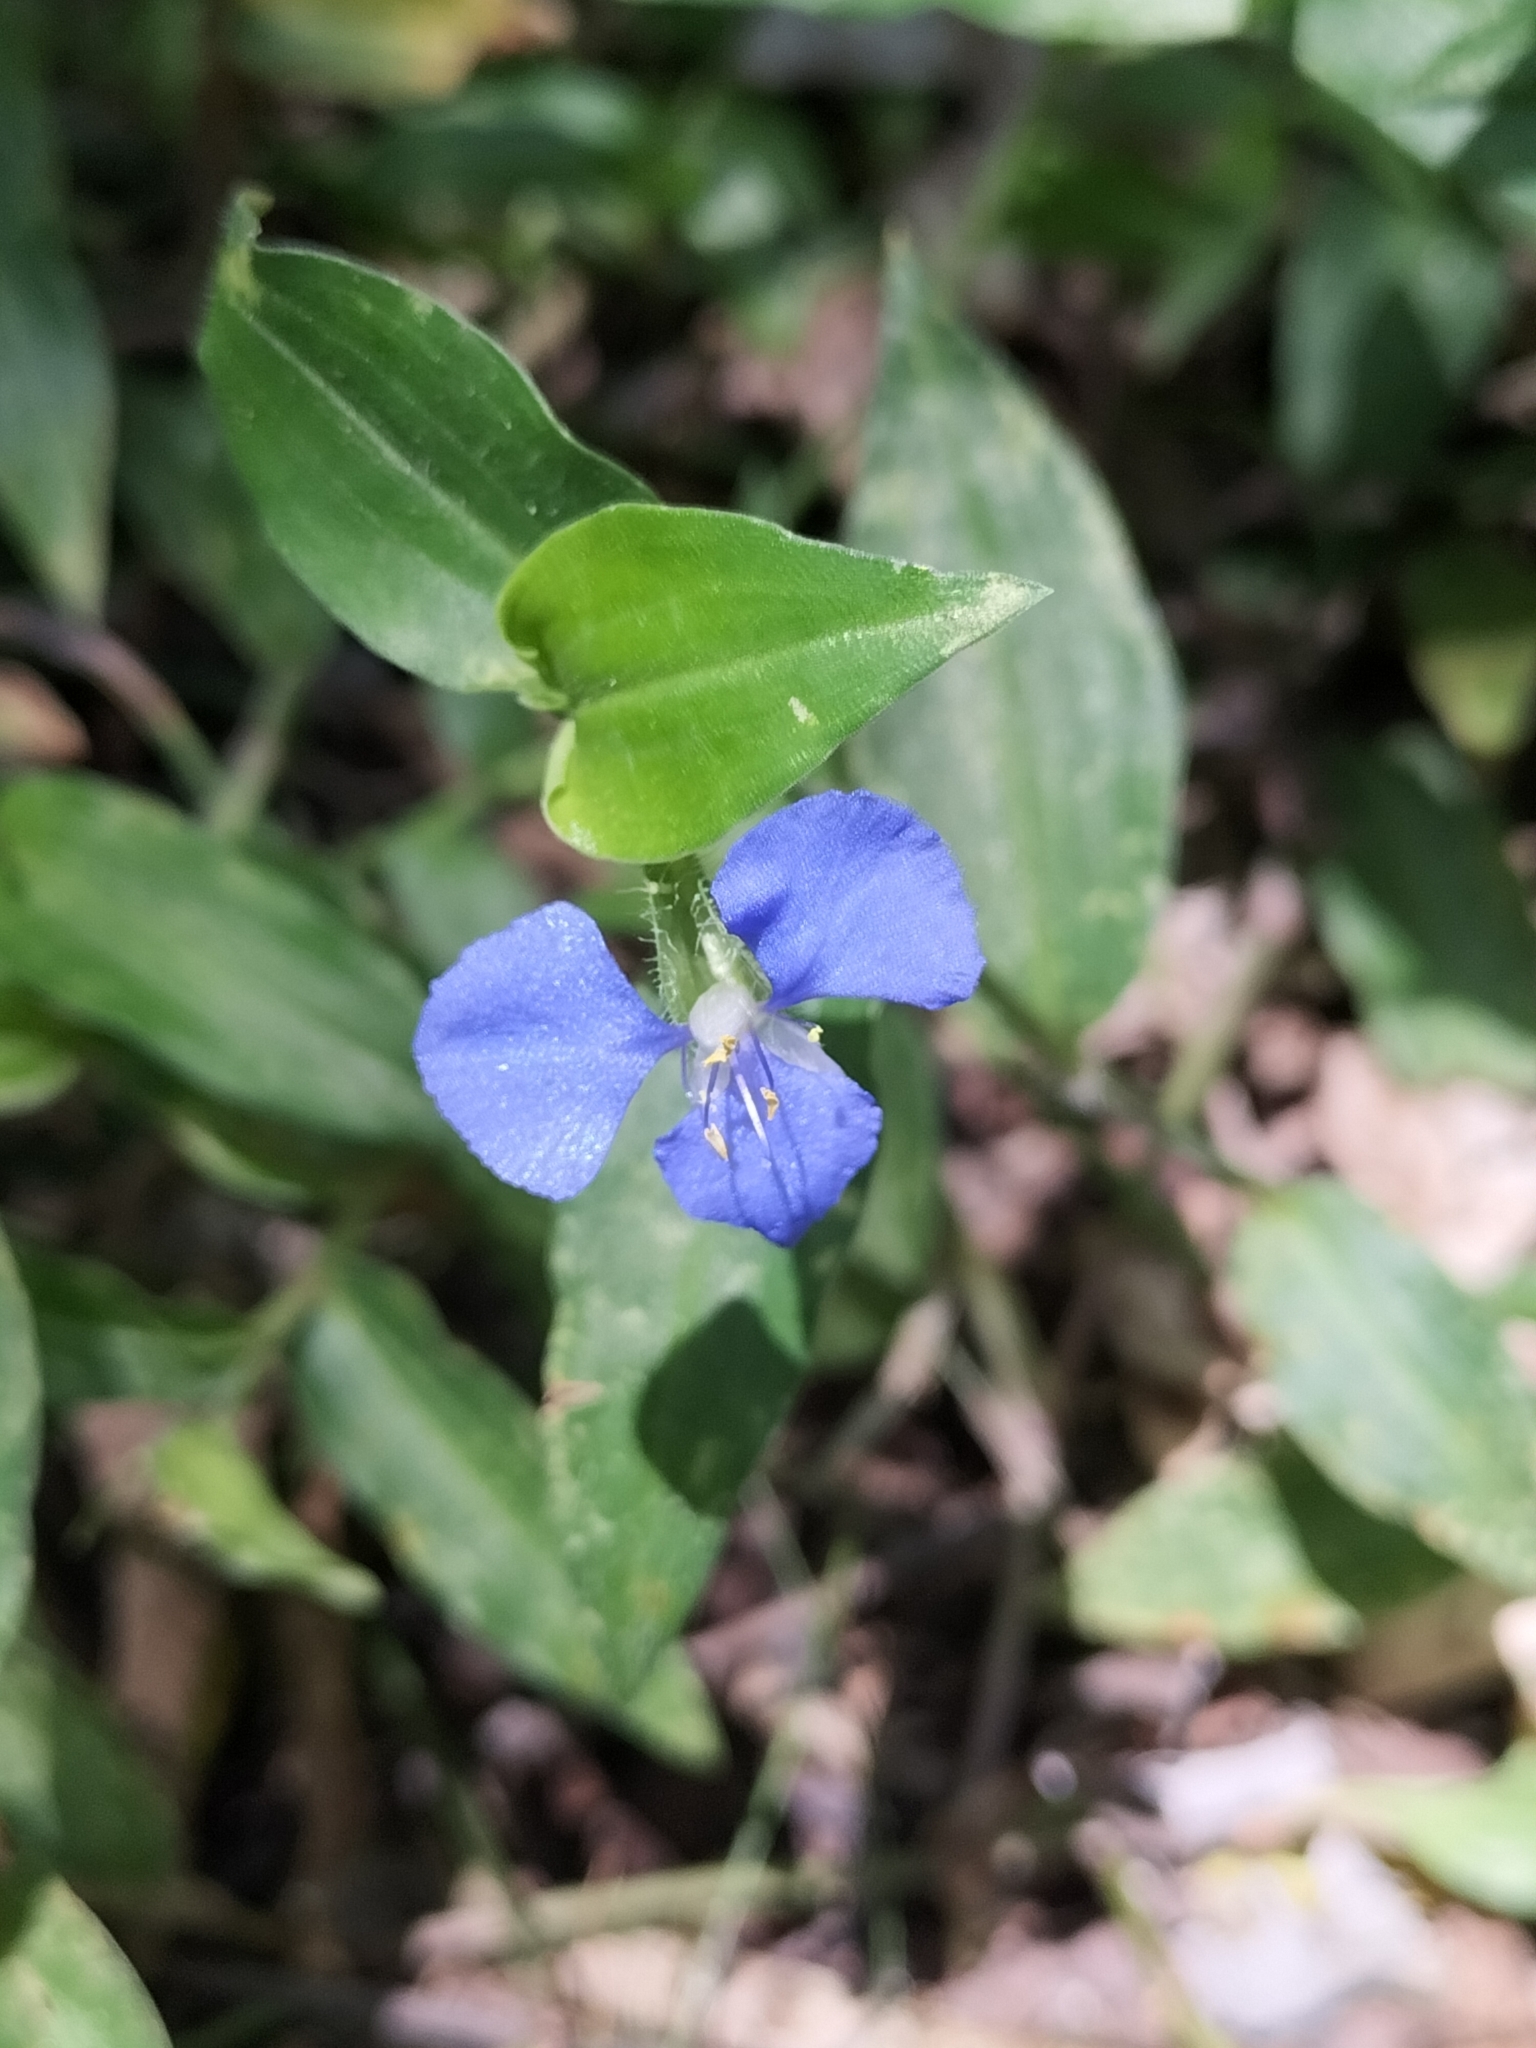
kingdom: Plantae
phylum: Tracheophyta
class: Liliopsida
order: Commelinales
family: Commelinaceae
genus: Commelina
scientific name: Commelina cyanea
